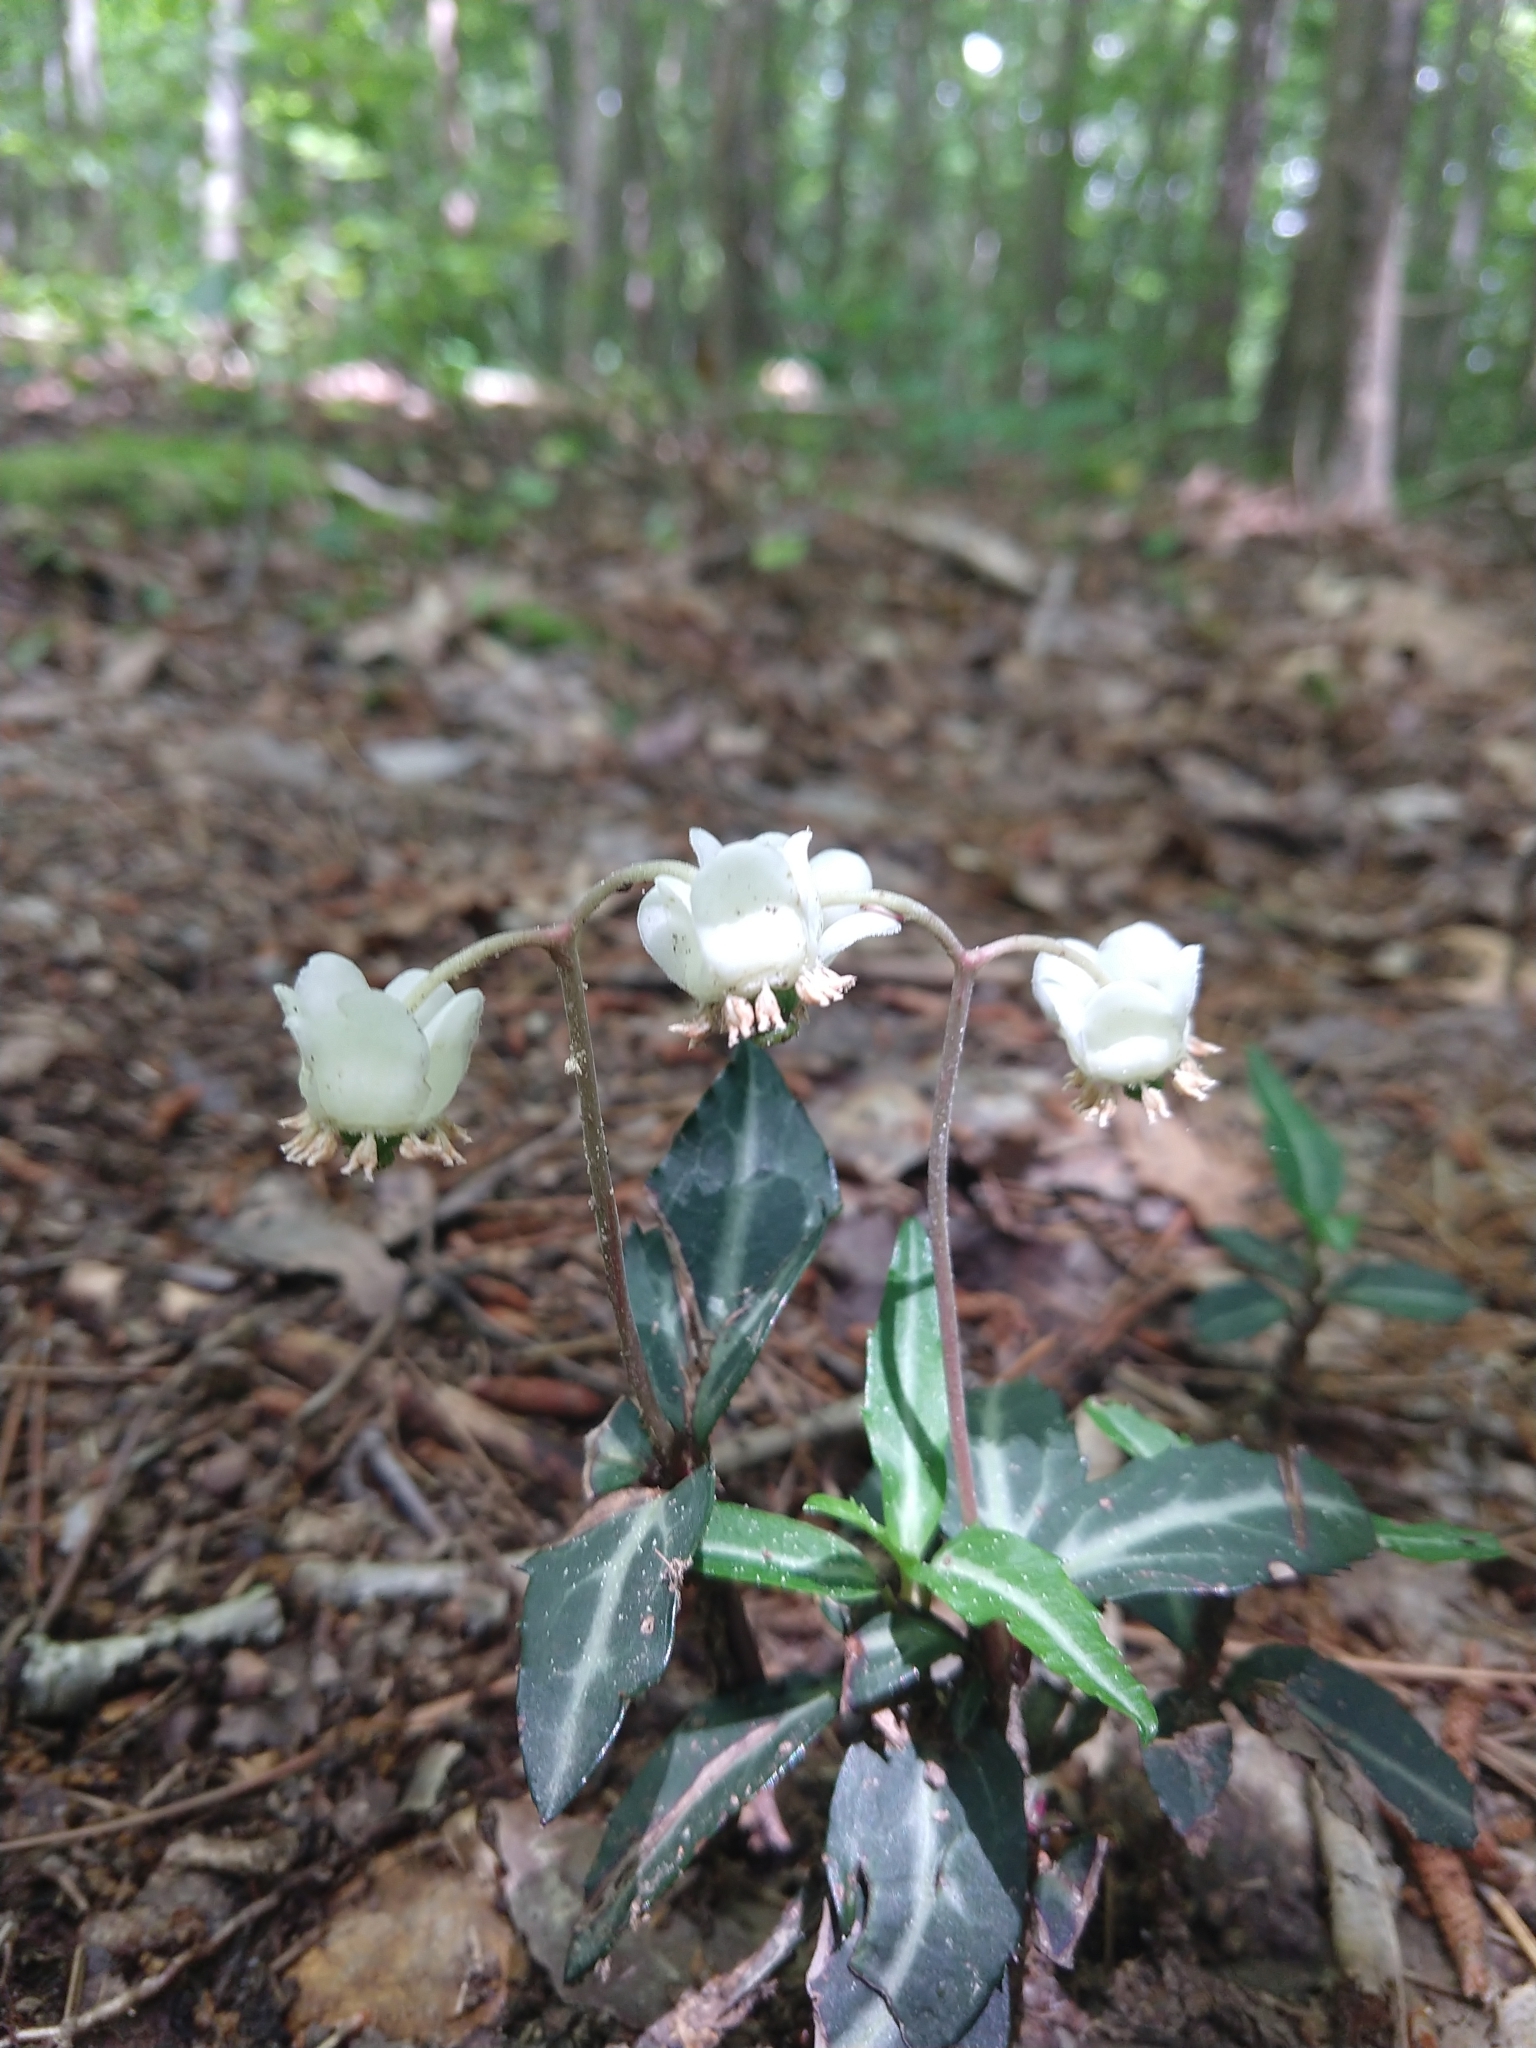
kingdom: Plantae
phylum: Tracheophyta
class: Magnoliopsida
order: Ericales
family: Ericaceae
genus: Chimaphila
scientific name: Chimaphila maculata
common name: Spotted pipsissewa
